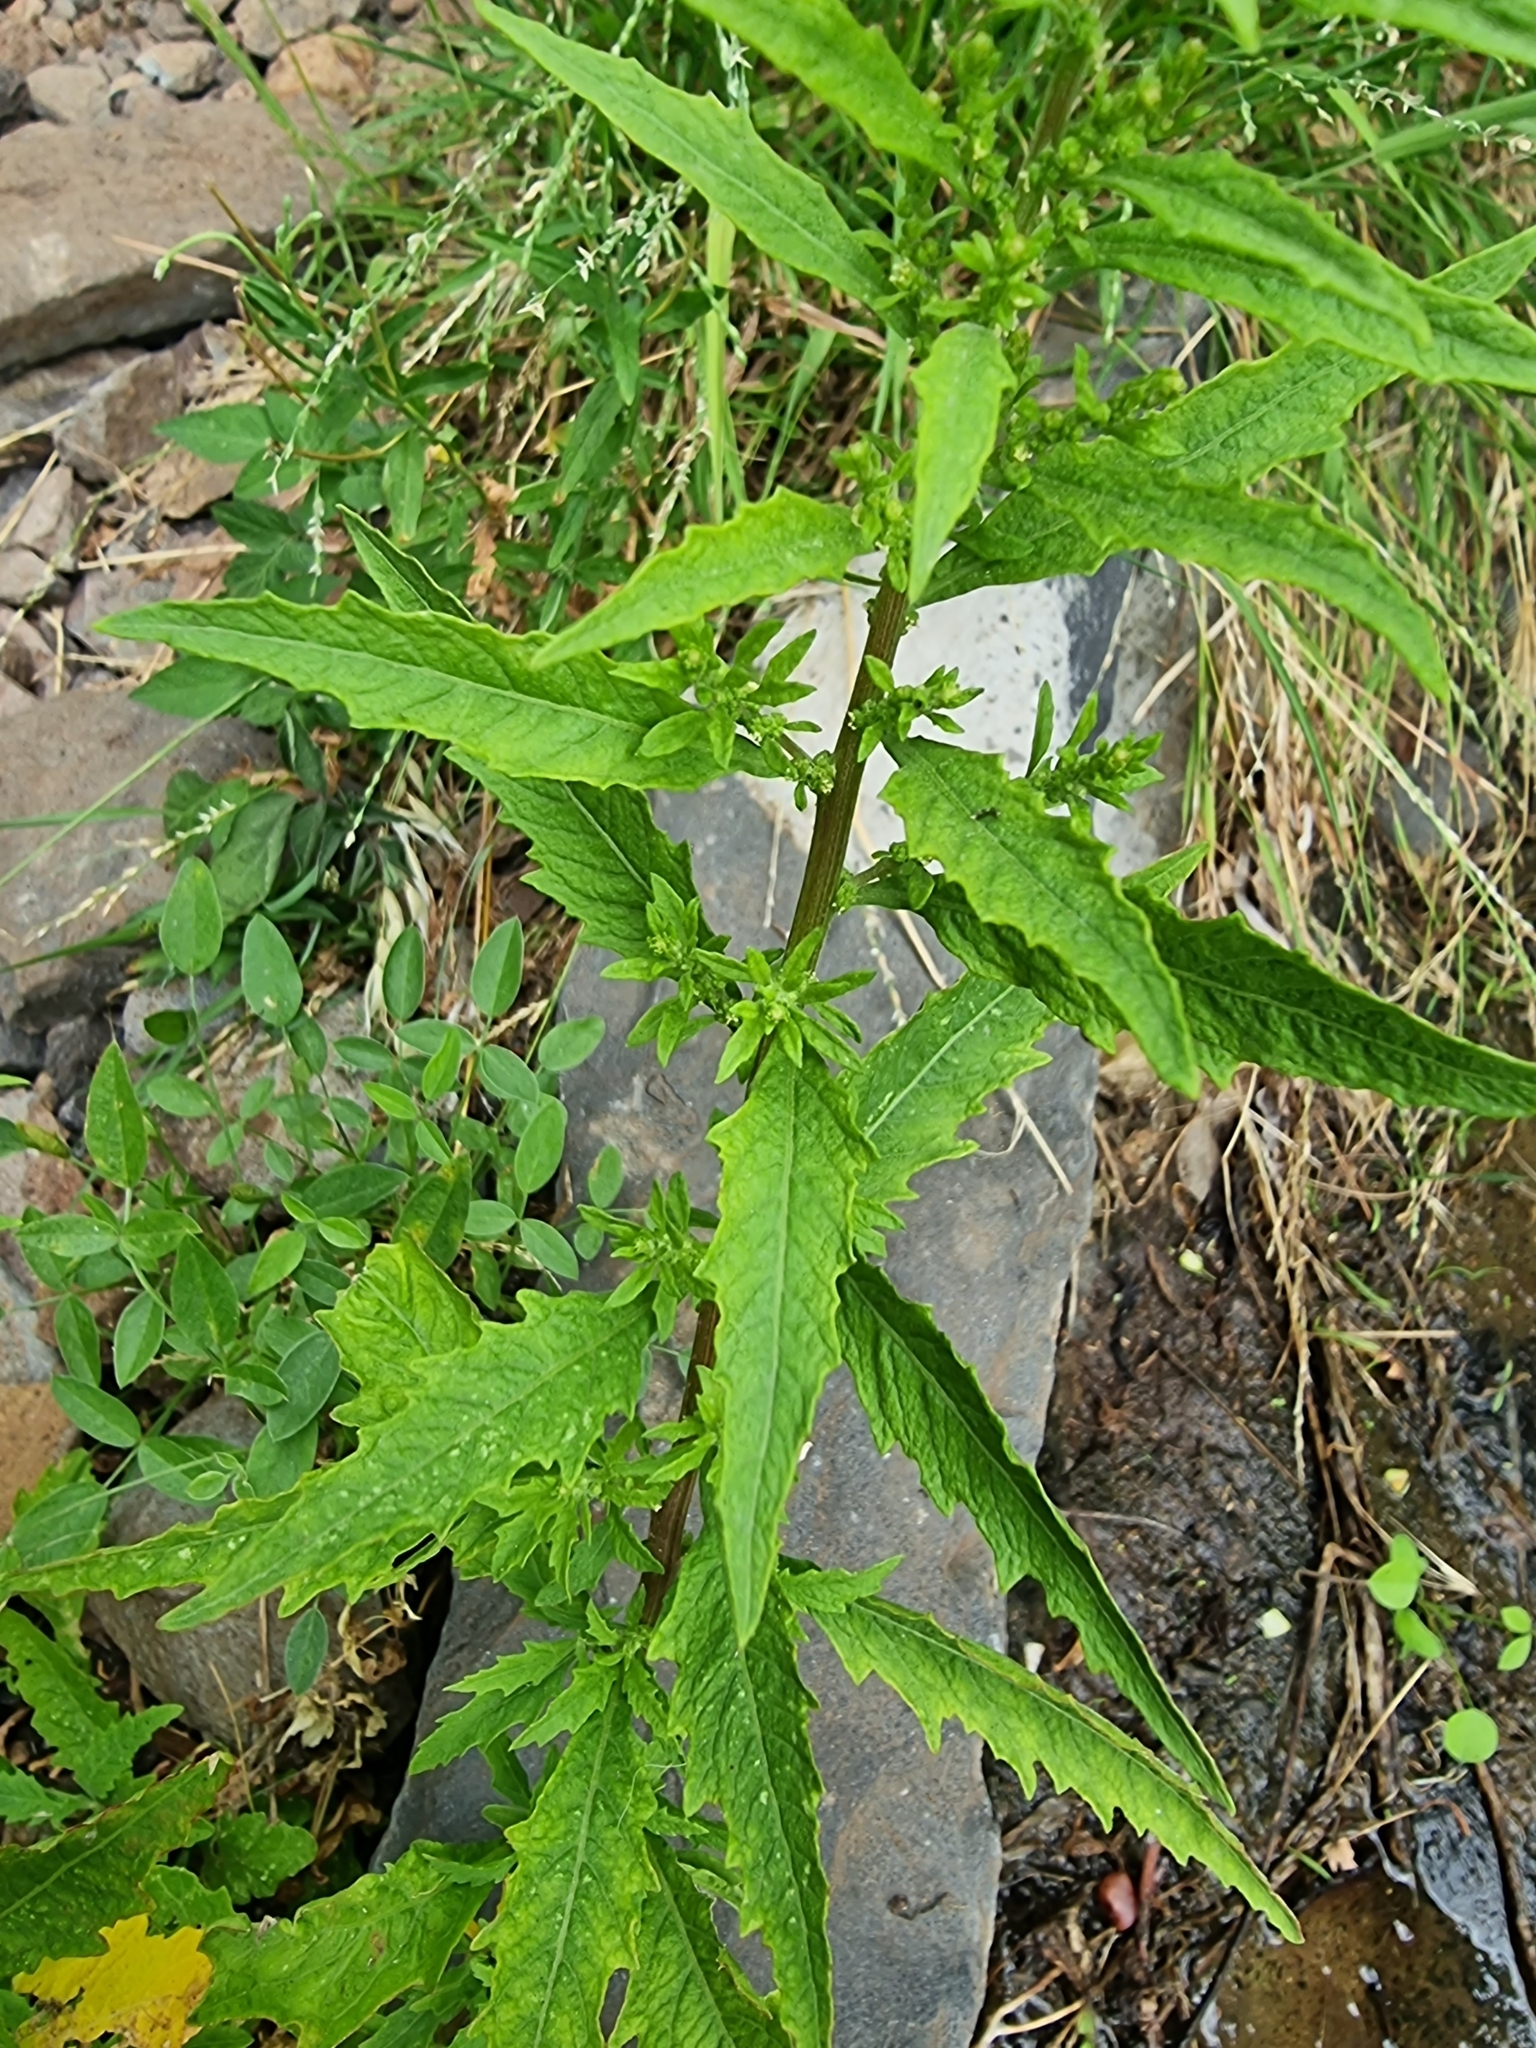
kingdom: Plantae
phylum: Tracheophyta
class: Magnoliopsida
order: Caryophyllales
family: Amaranthaceae
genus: Dysphania
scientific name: Dysphania ambrosioides
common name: Wormseed
